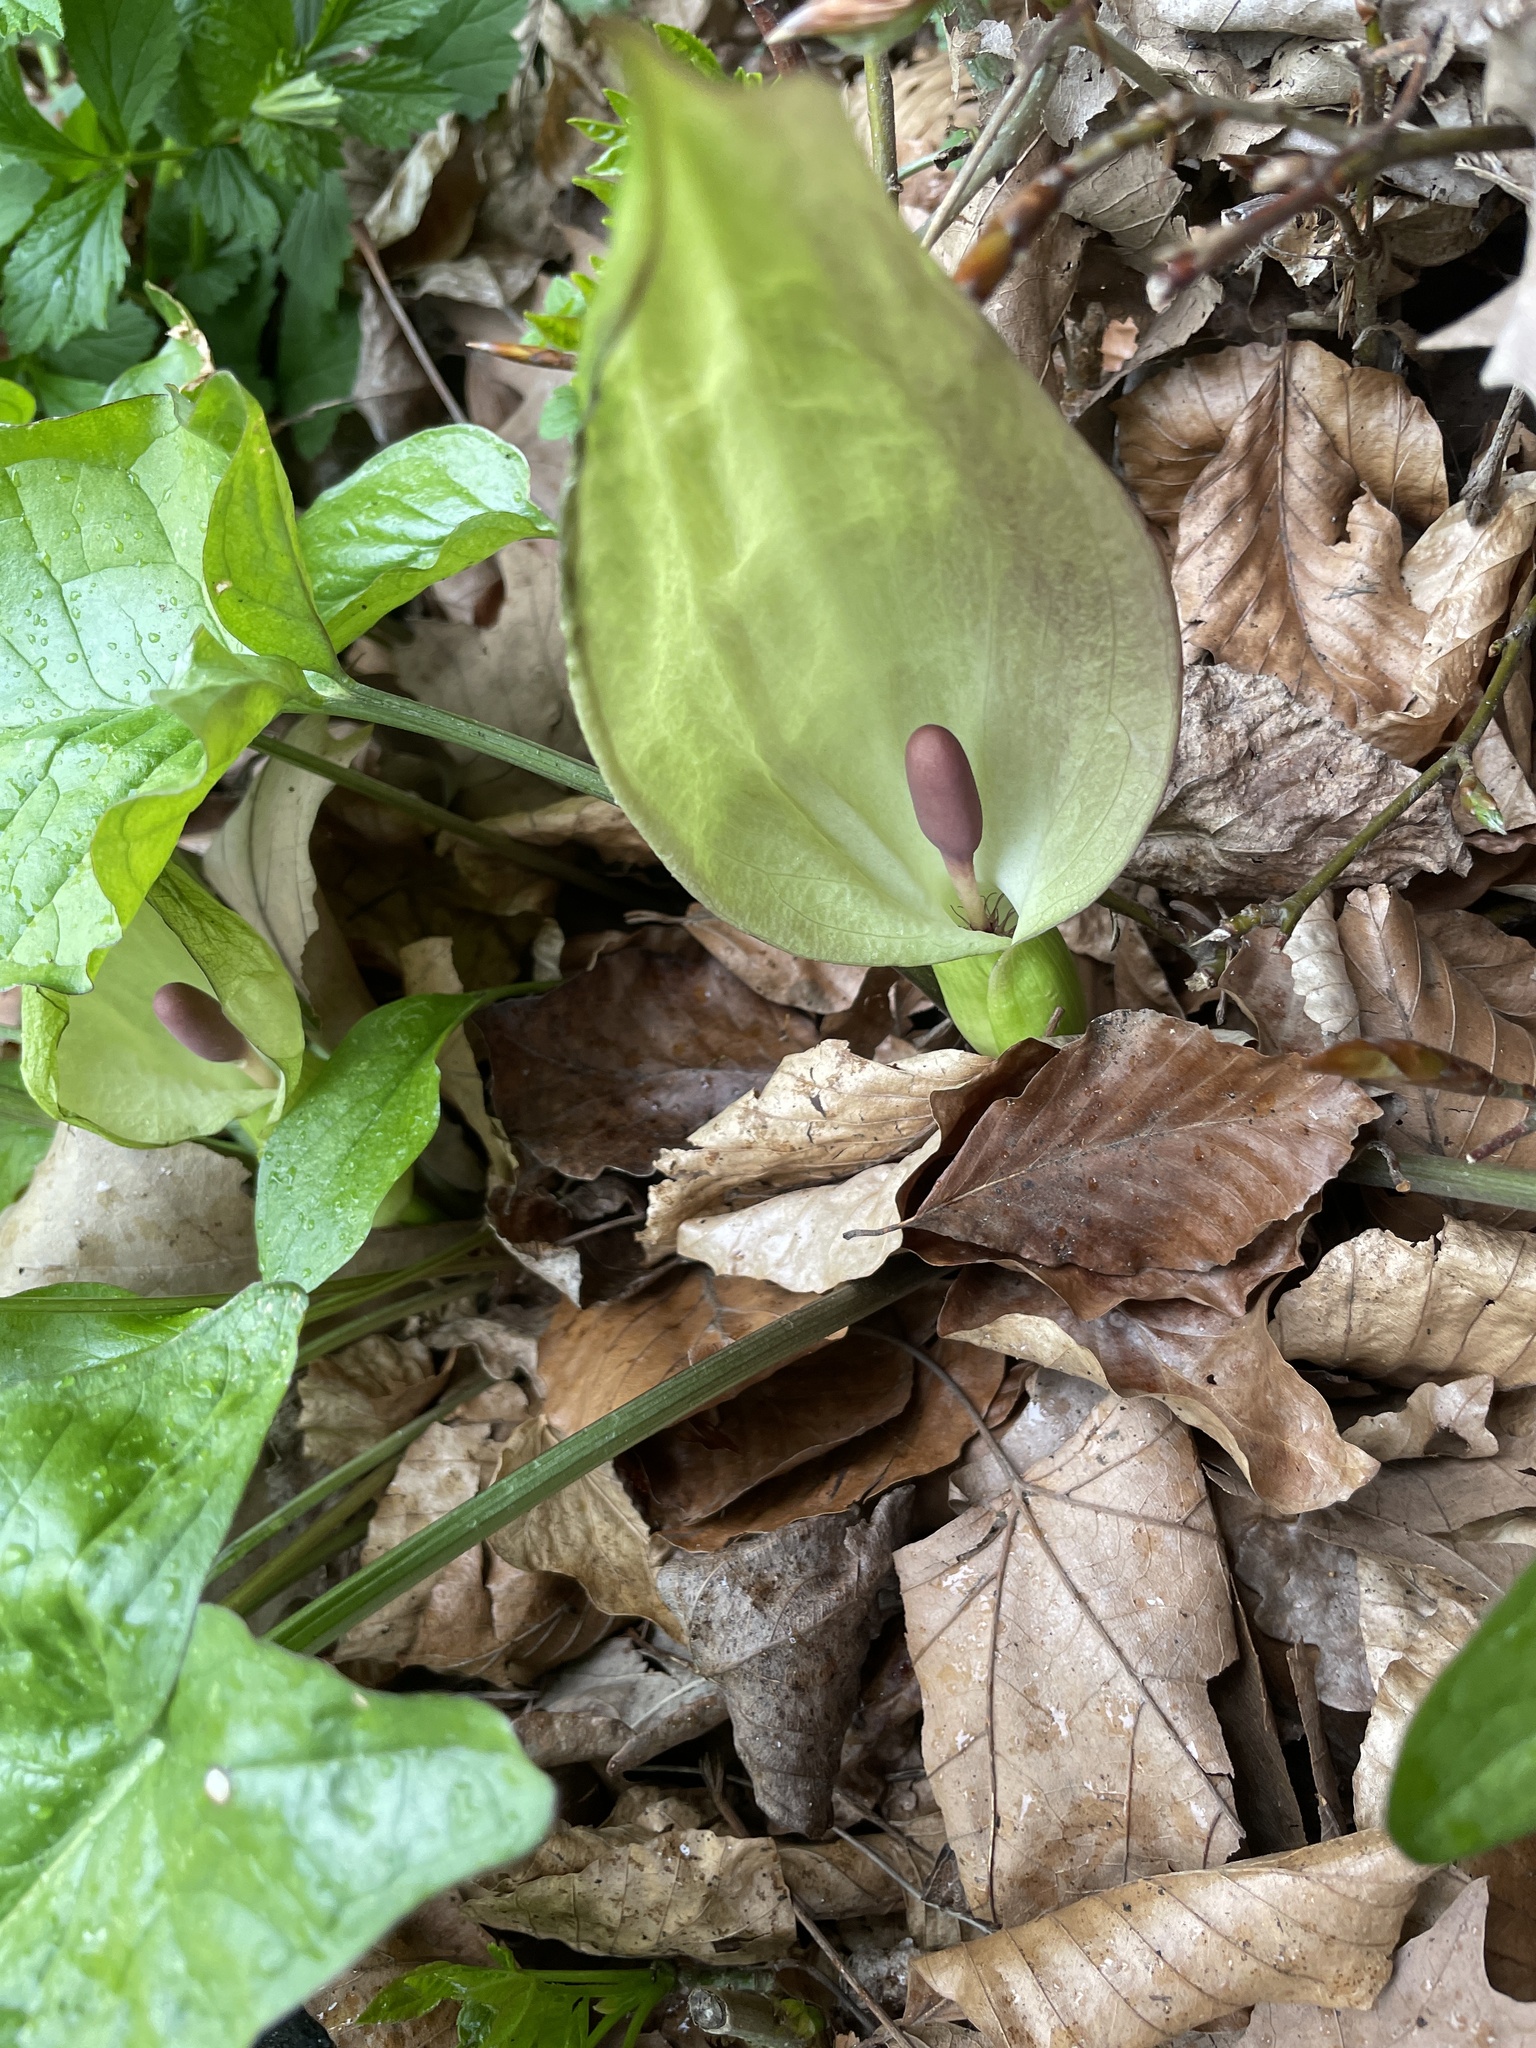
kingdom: Plantae
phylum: Tracheophyta
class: Liliopsida
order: Alismatales
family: Araceae
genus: Arum
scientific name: Arum maculatum
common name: Lords-and-ladies
